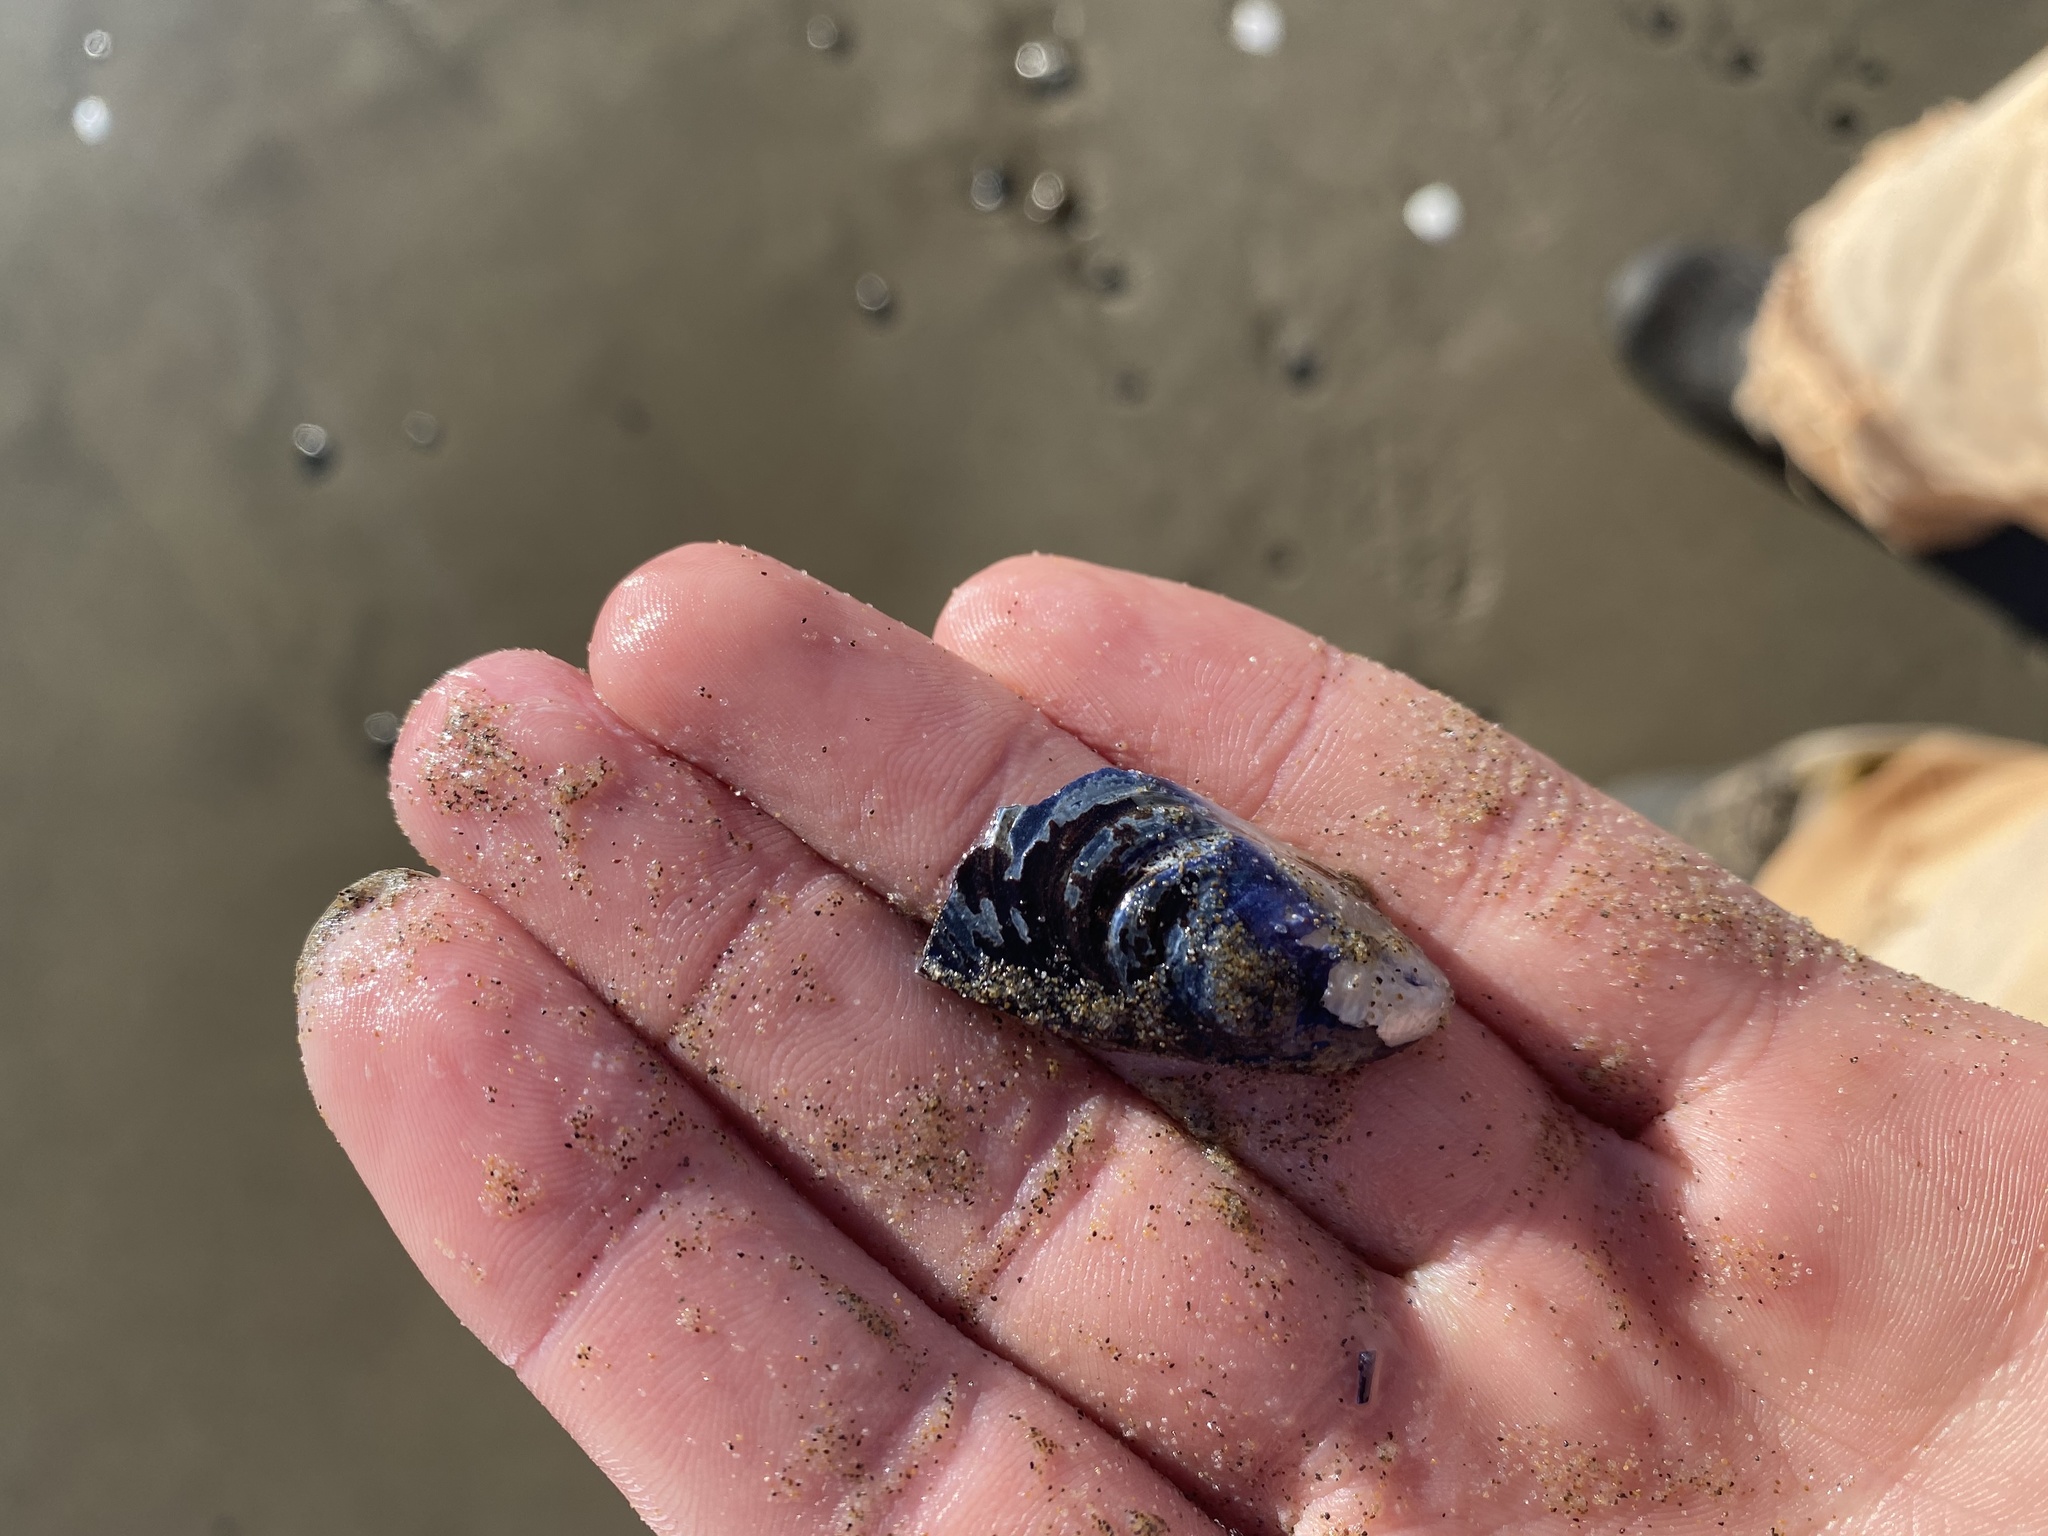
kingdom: Animalia
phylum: Mollusca
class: Bivalvia
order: Mytilida
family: Mytilidae
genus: Mytilus
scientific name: Mytilus californianus
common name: California mussel
